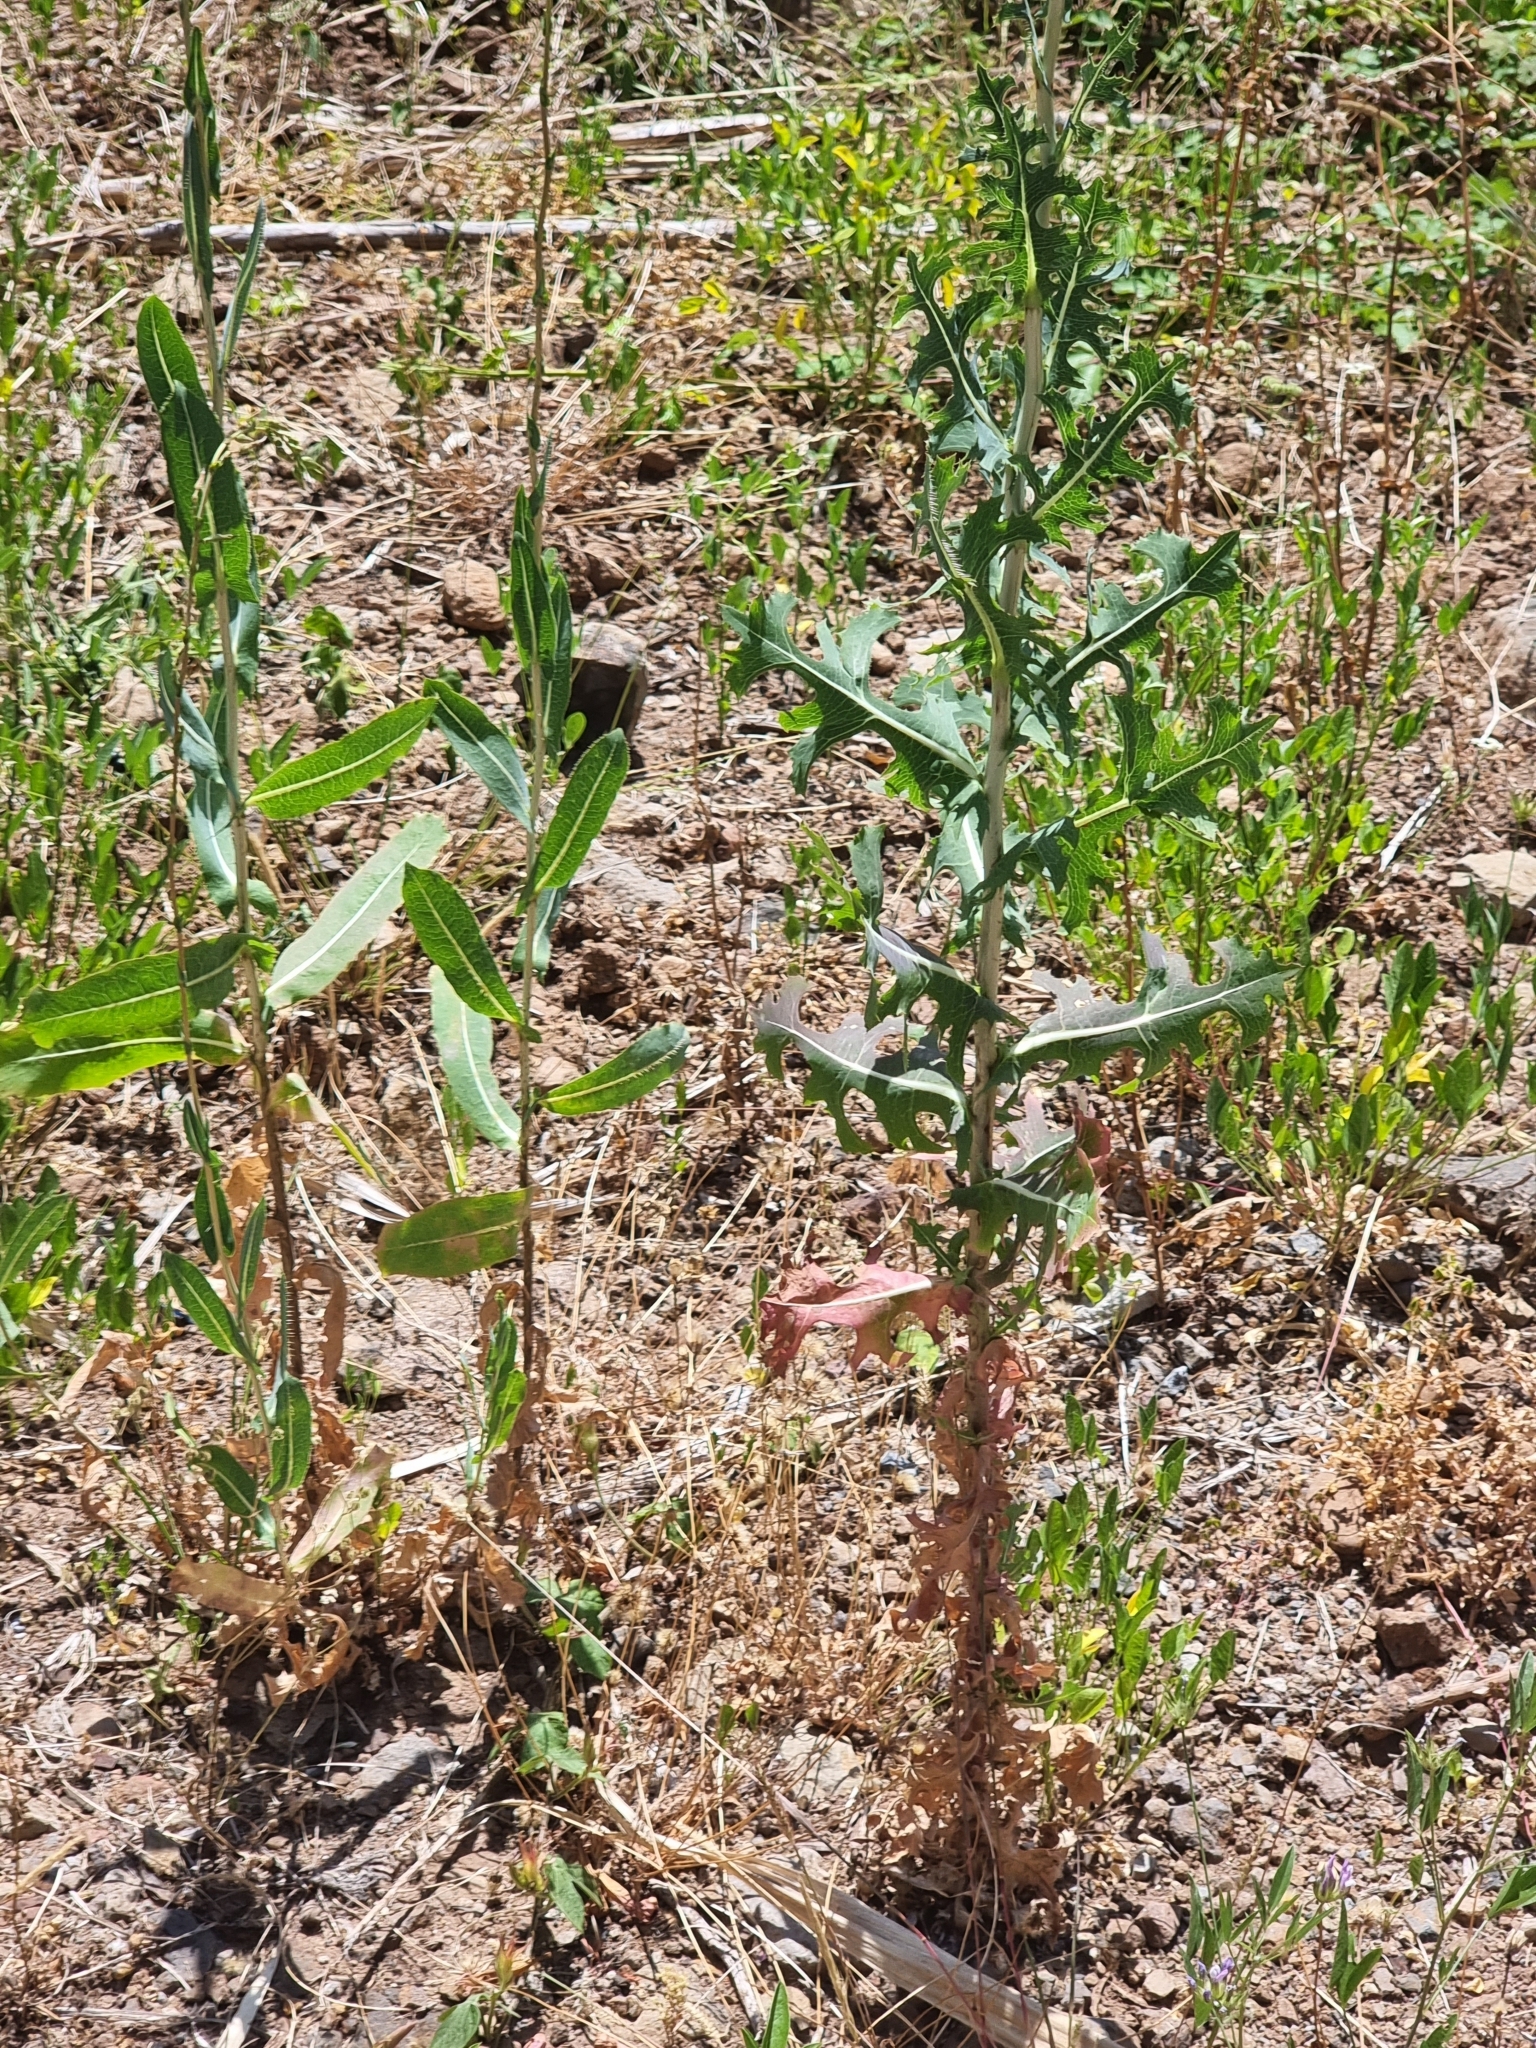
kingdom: Plantae
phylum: Tracheophyta
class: Magnoliopsida
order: Asterales
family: Asteraceae
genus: Lactuca
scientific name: Lactuca serriola
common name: Prickly lettuce
